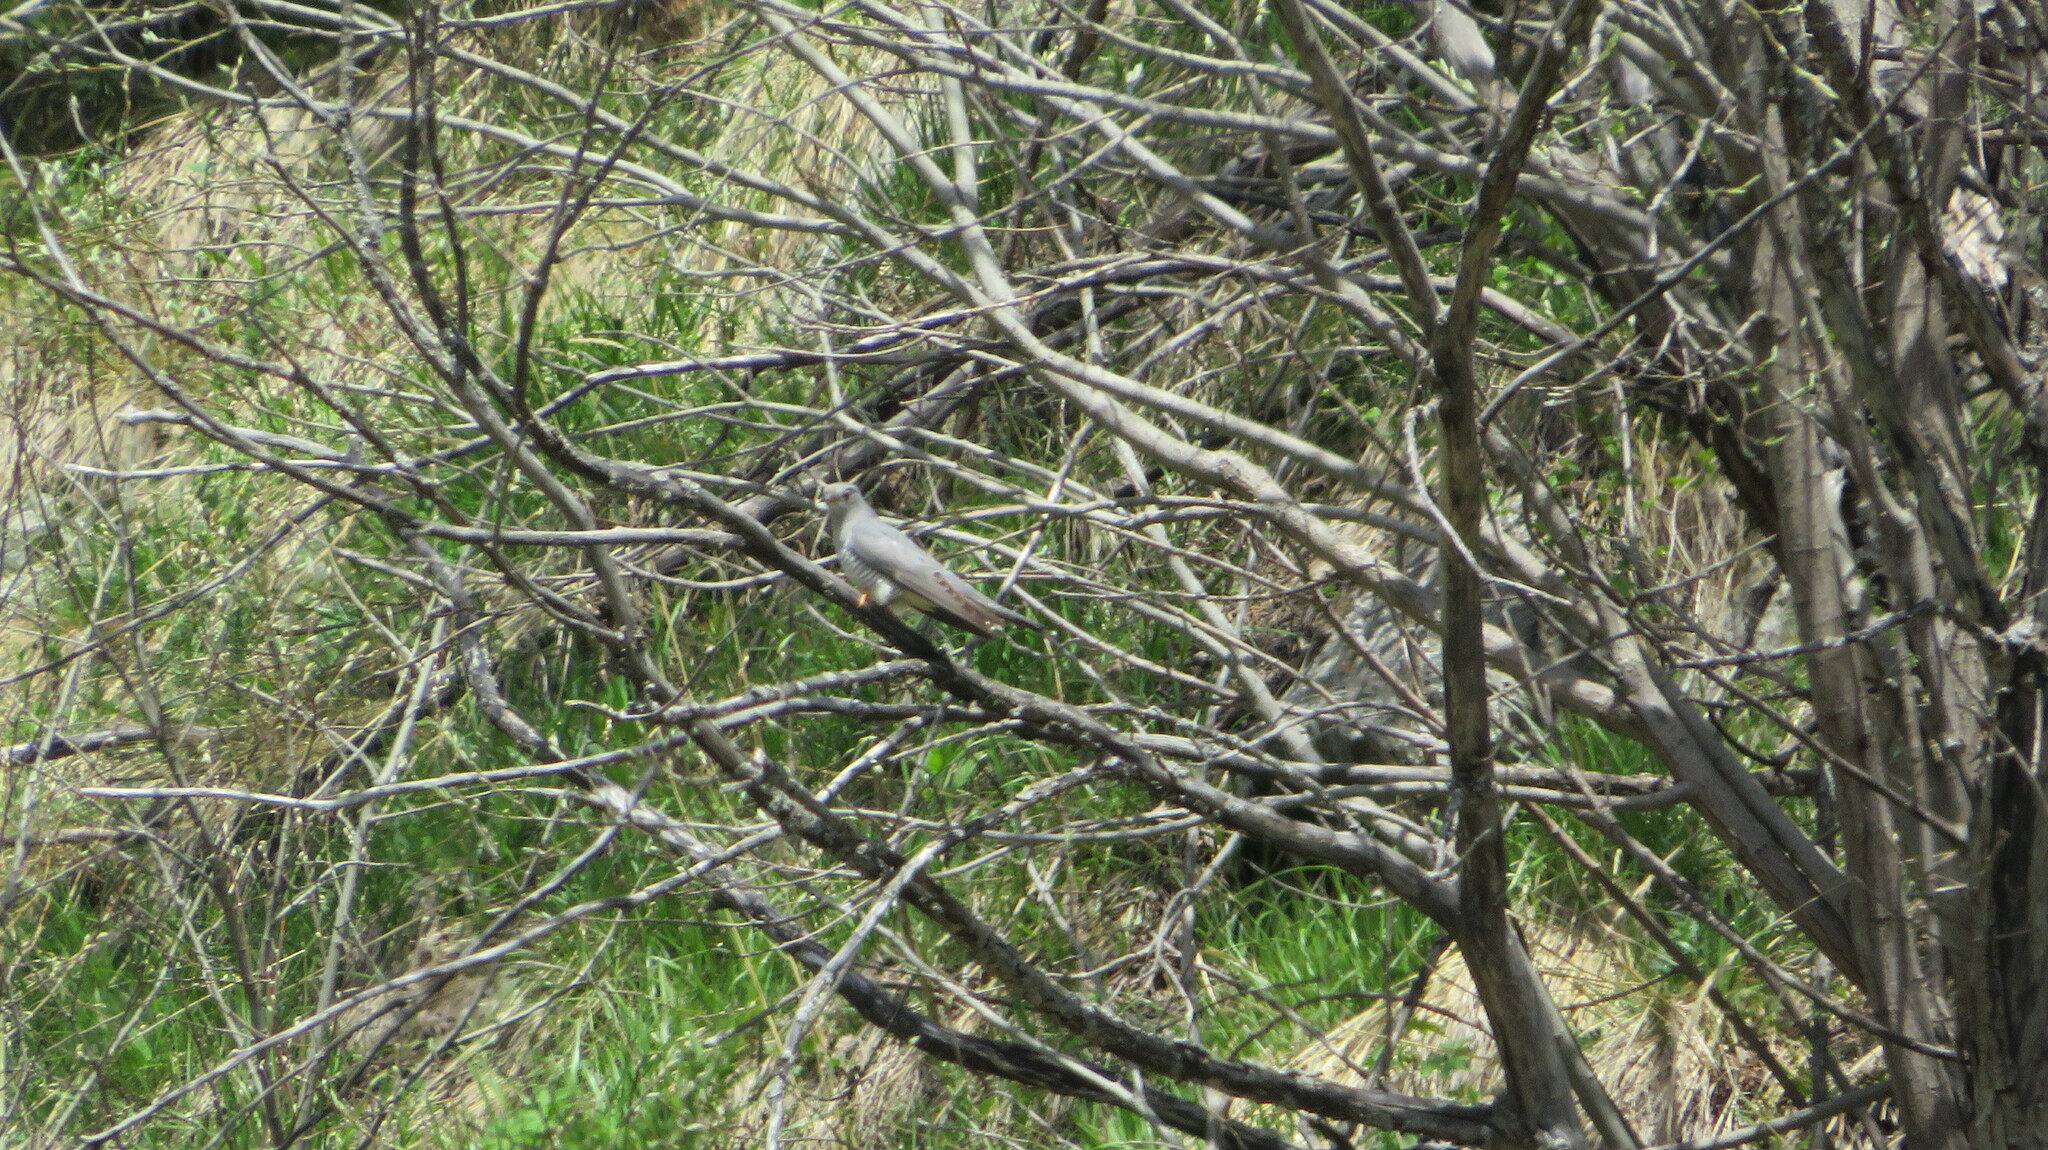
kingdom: Animalia
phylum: Chordata
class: Aves
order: Cuculiformes
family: Cuculidae
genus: Cuculus
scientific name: Cuculus canorus
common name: Common cuckoo
